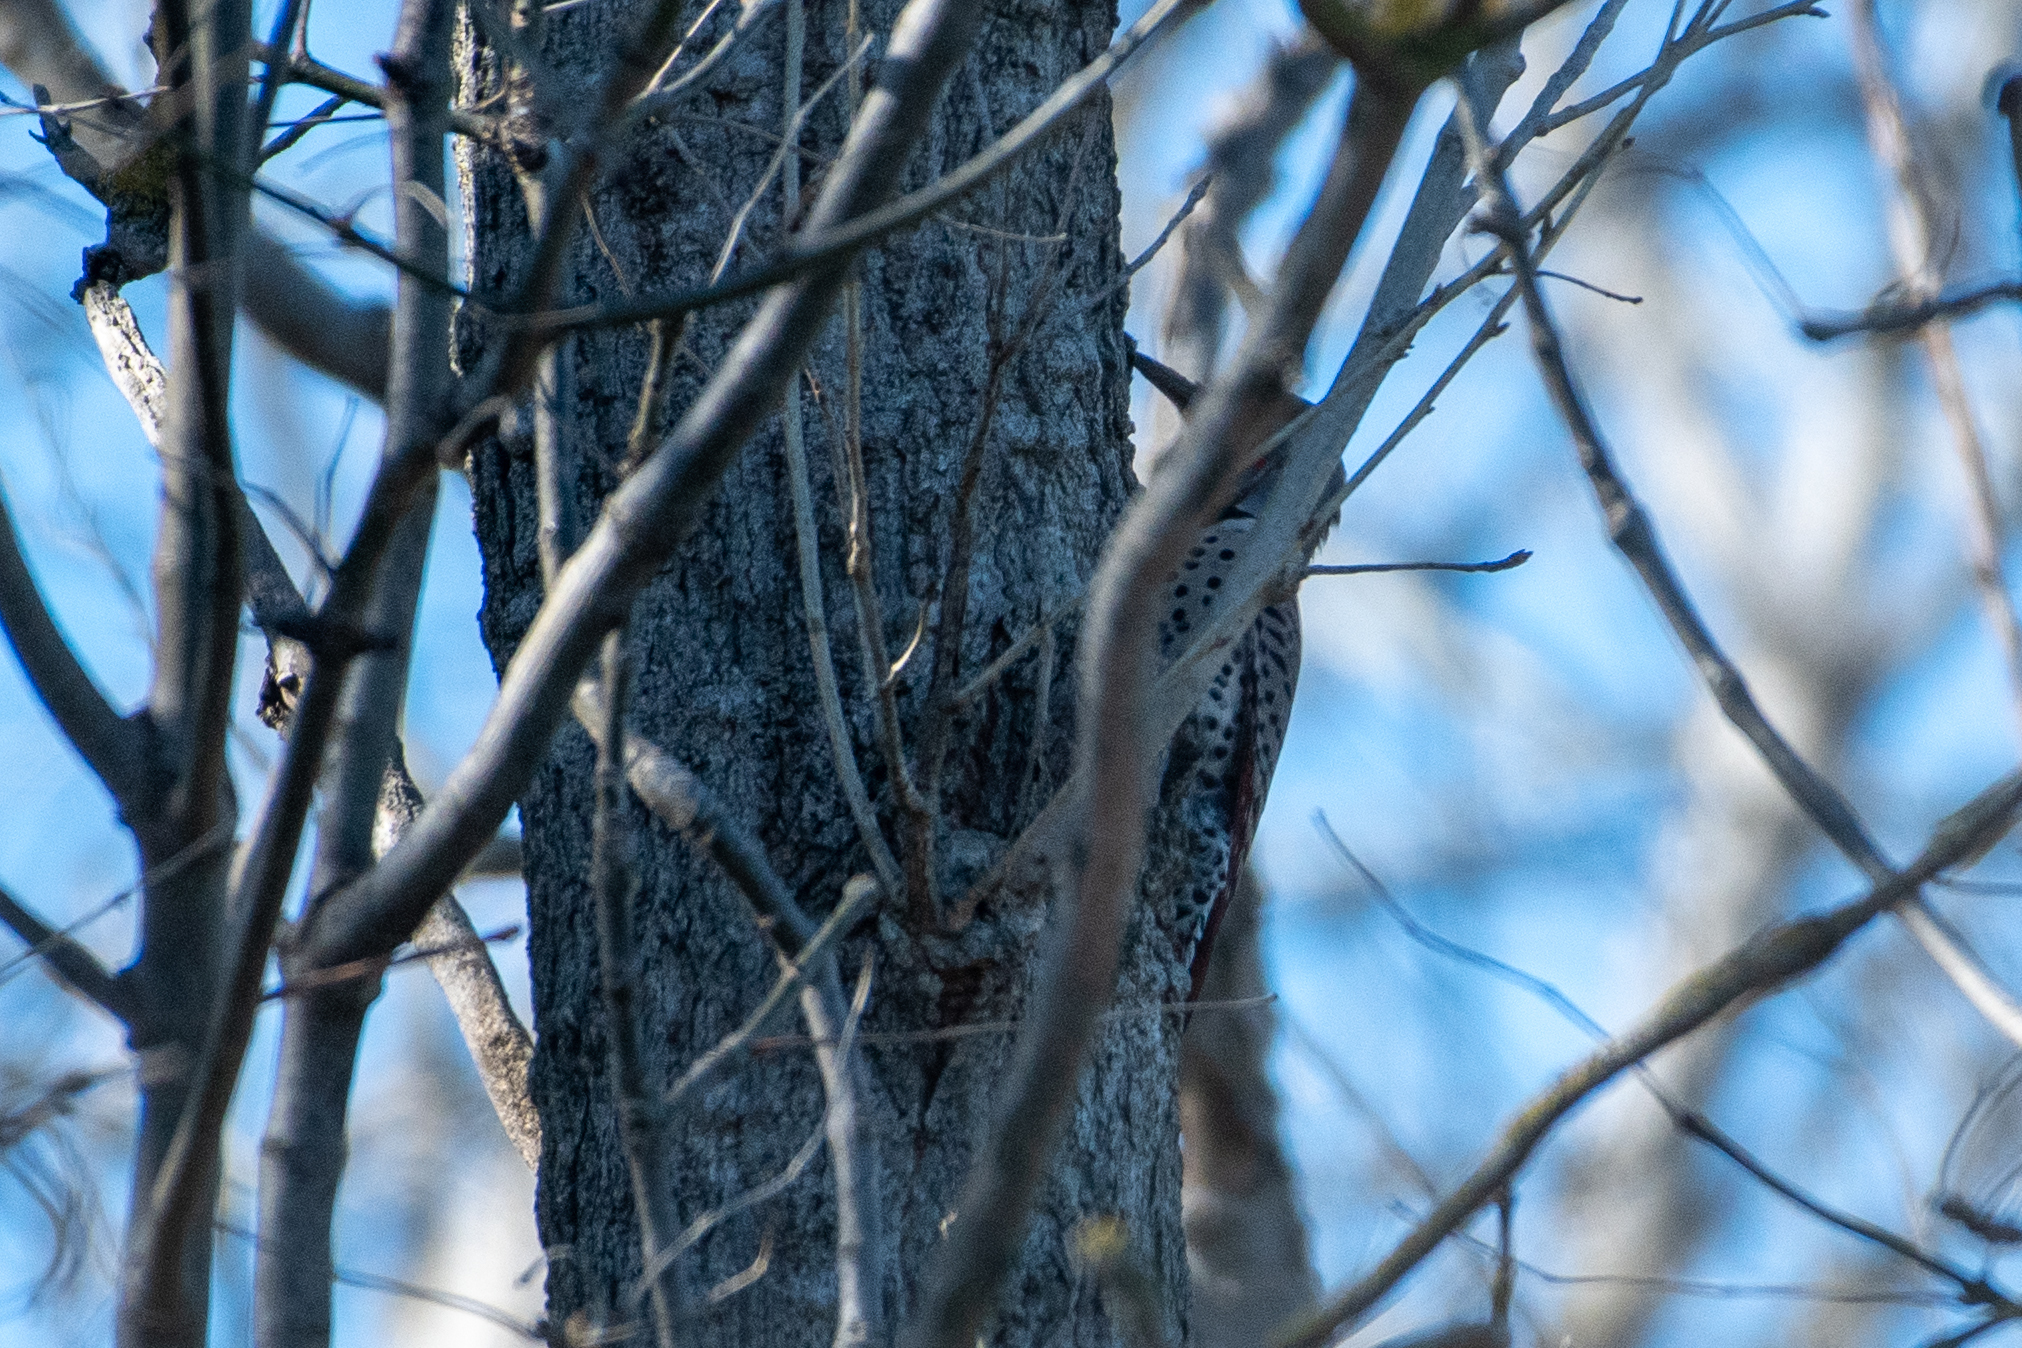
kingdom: Animalia
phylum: Chordata
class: Aves
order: Piciformes
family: Picidae
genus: Colaptes
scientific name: Colaptes auratus
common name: Northern flicker
